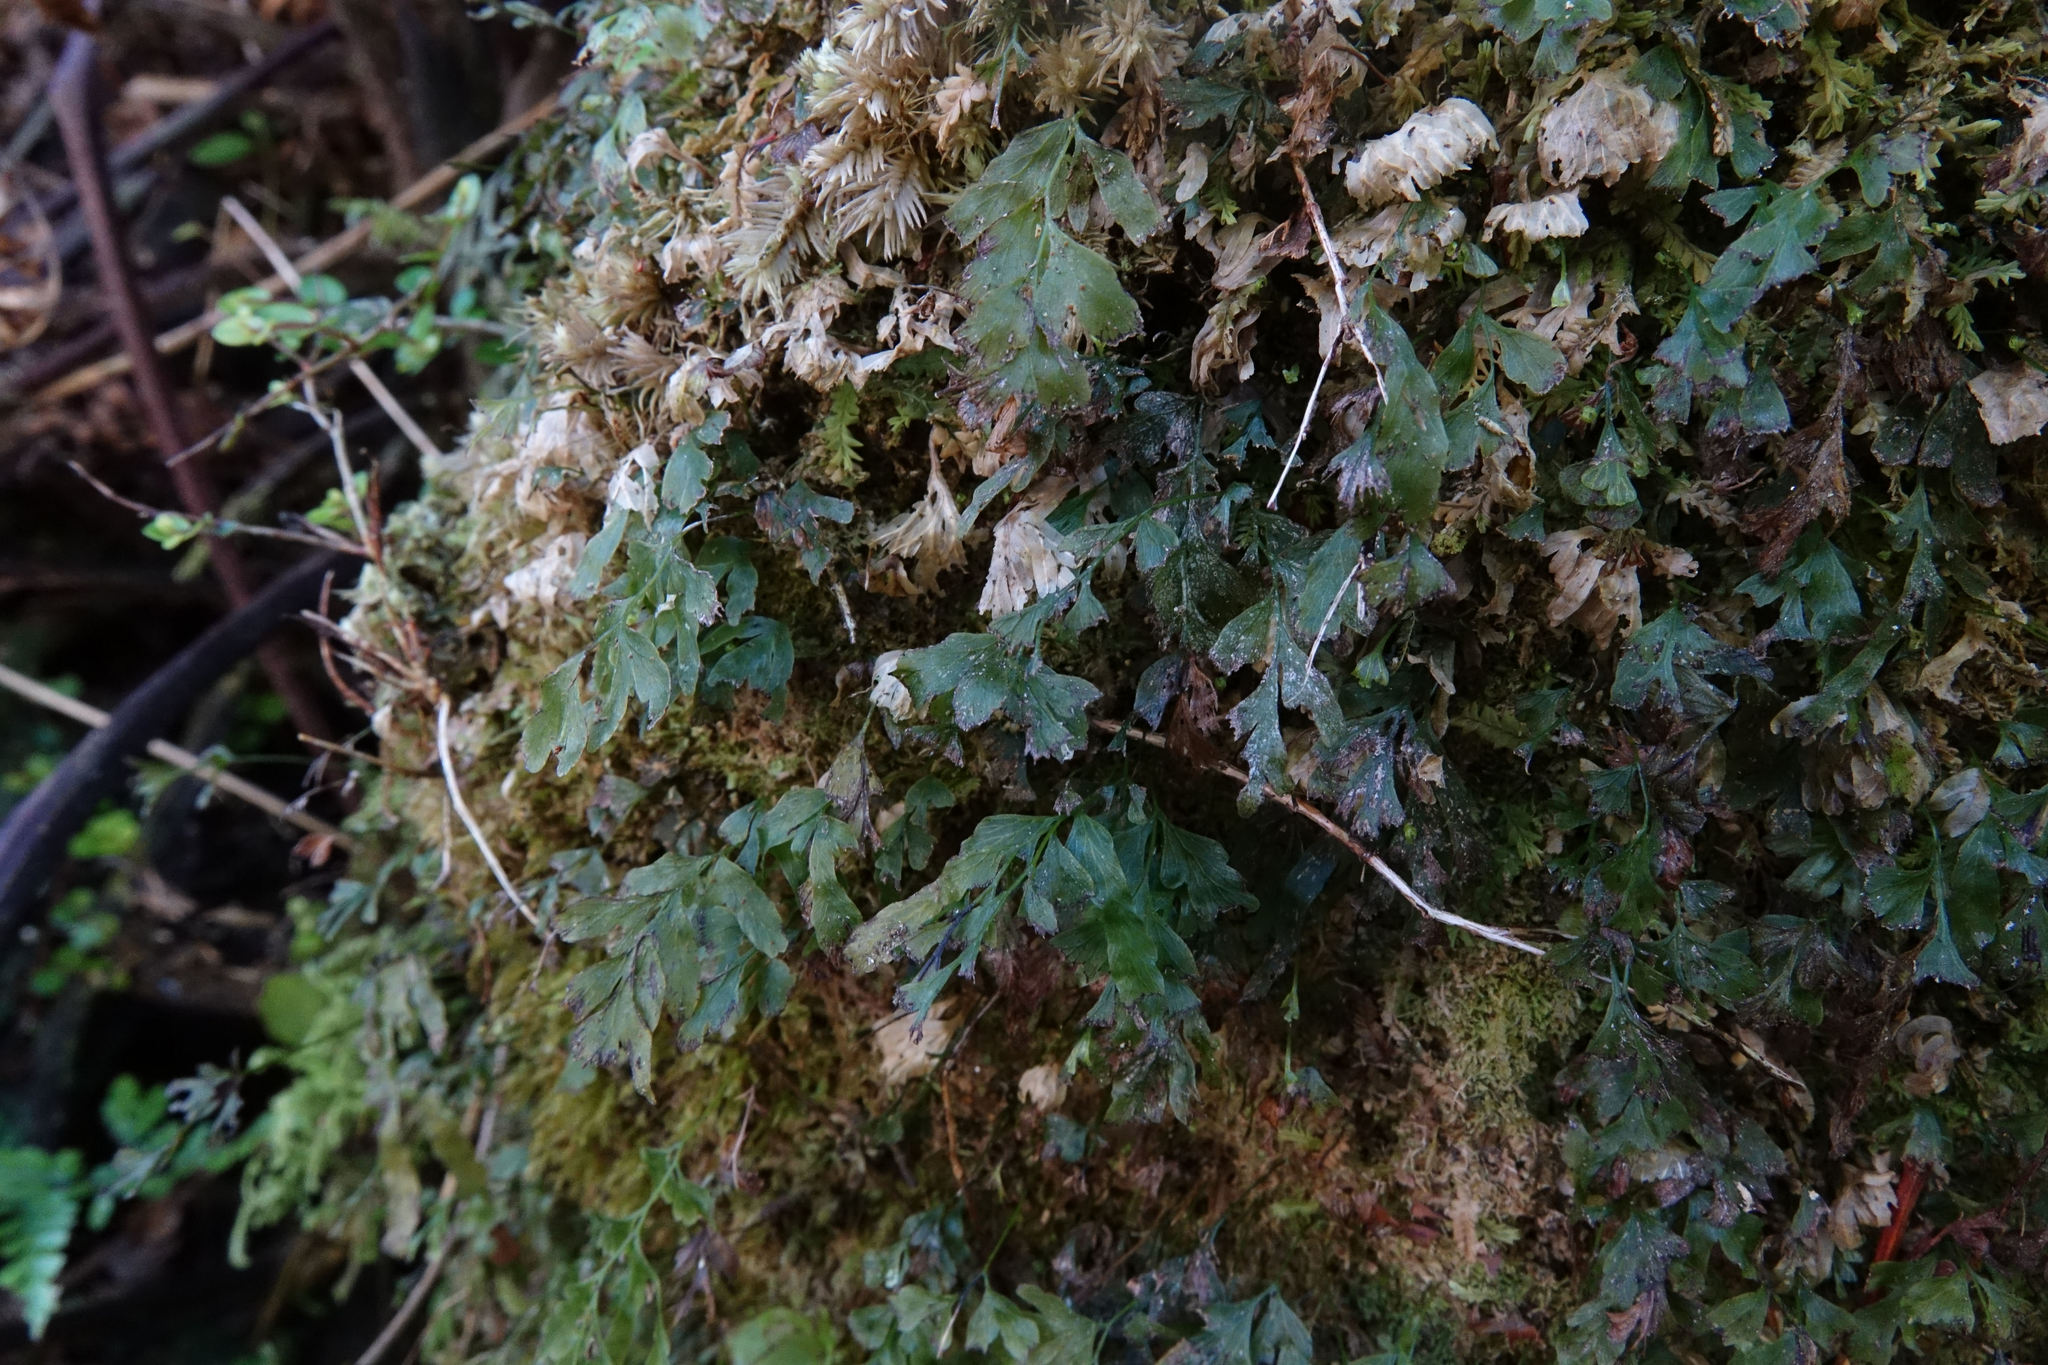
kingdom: Plantae
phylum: Tracheophyta
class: Polypodiopsida
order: Hymenophyllales
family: Hymenophyllaceae
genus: Polyphlebium
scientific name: Polyphlebium venosum
